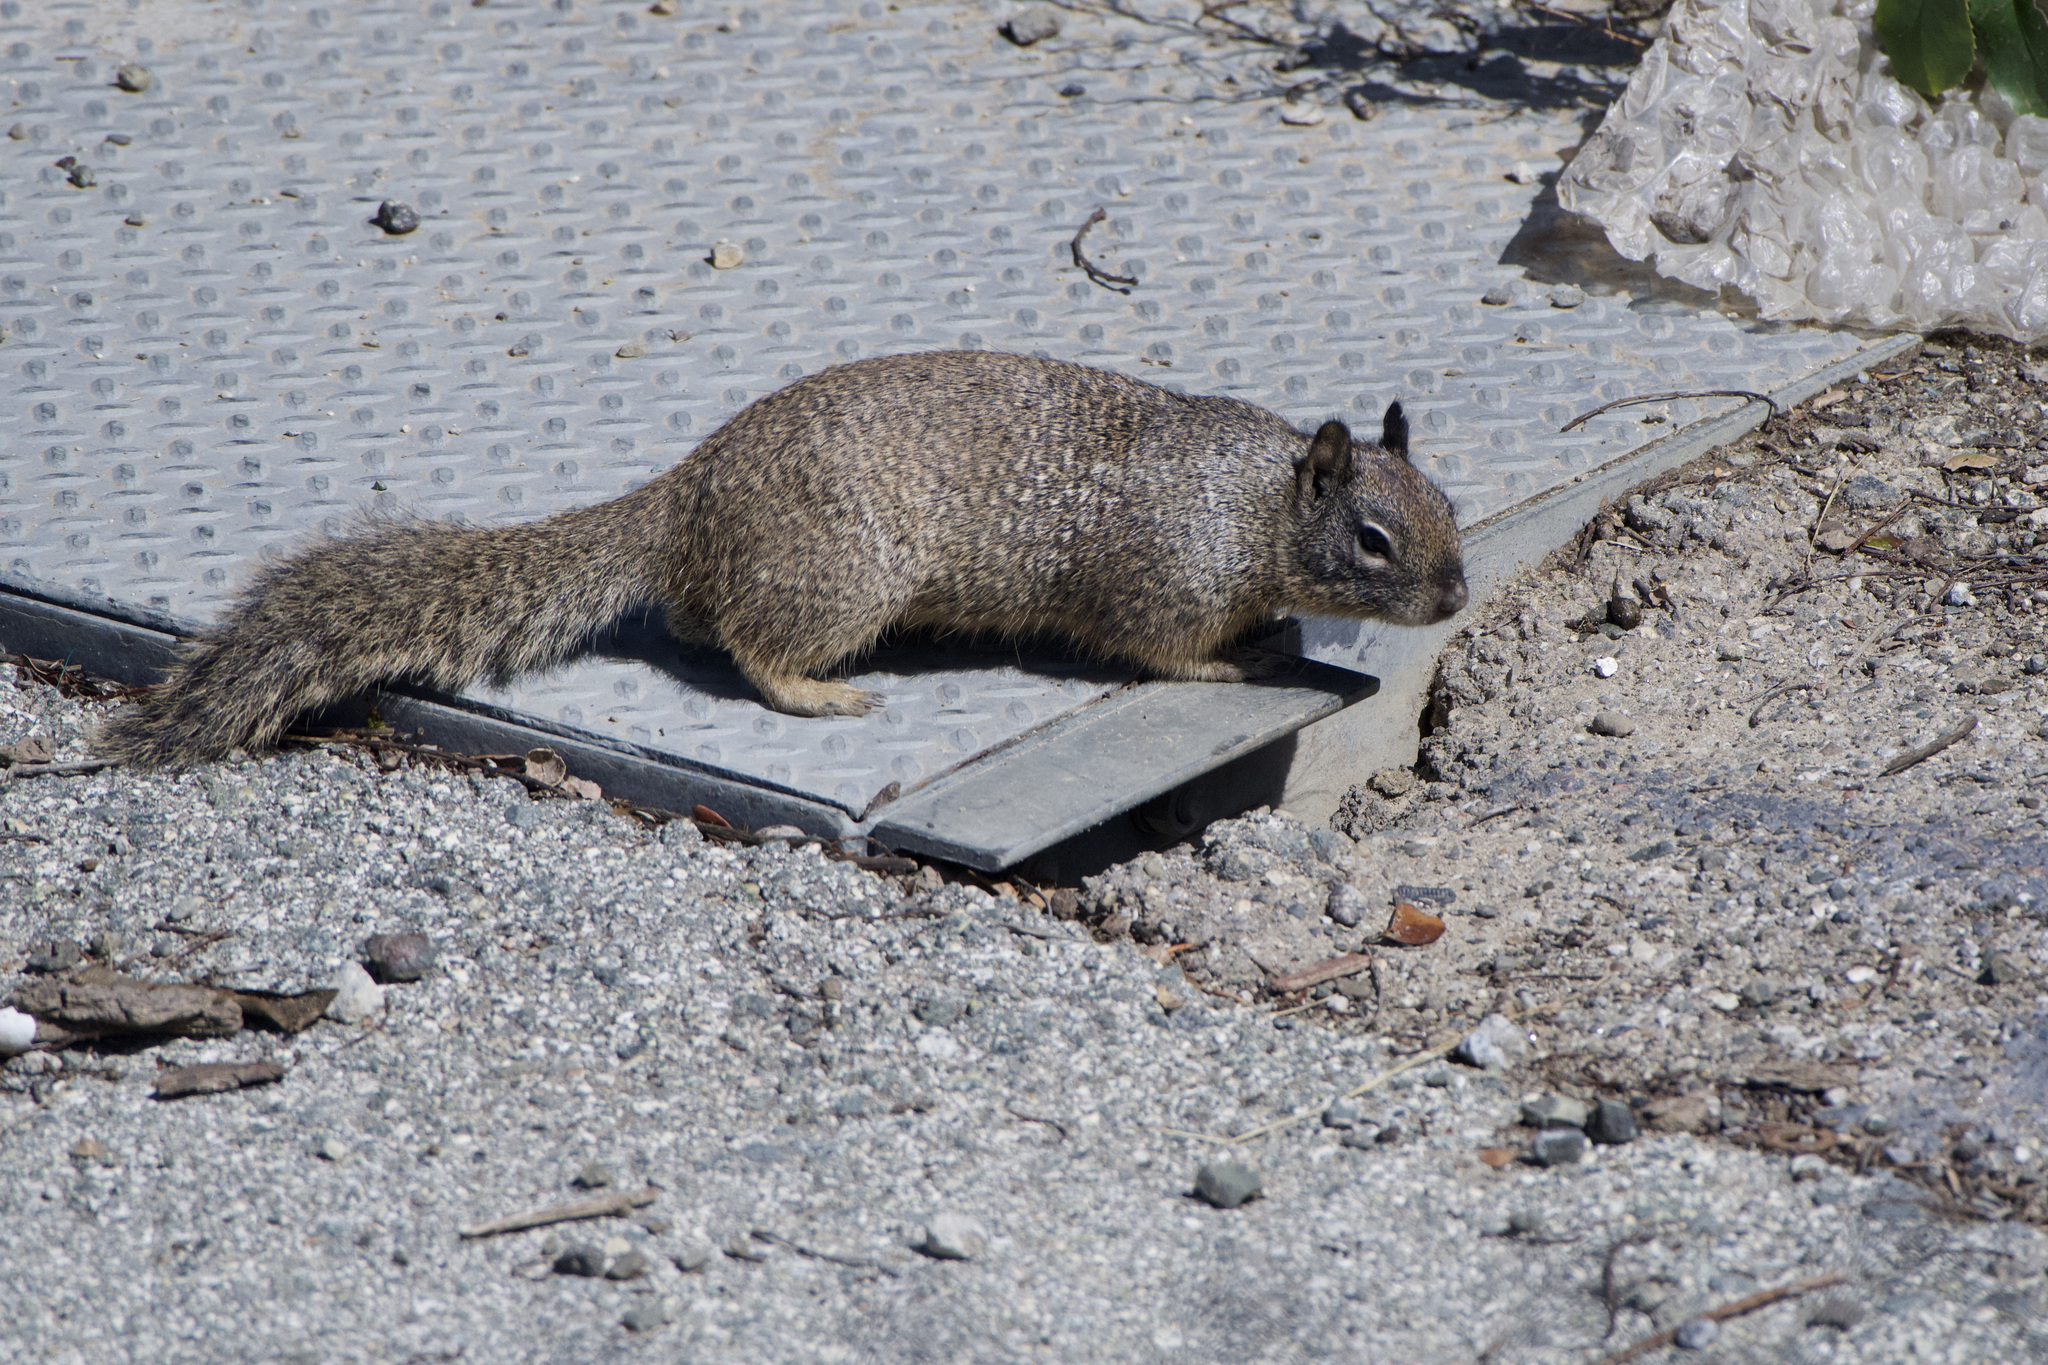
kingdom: Animalia
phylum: Chordata
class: Mammalia
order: Rodentia
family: Sciuridae
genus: Otospermophilus
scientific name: Otospermophilus beecheyi
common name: California ground squirrel
